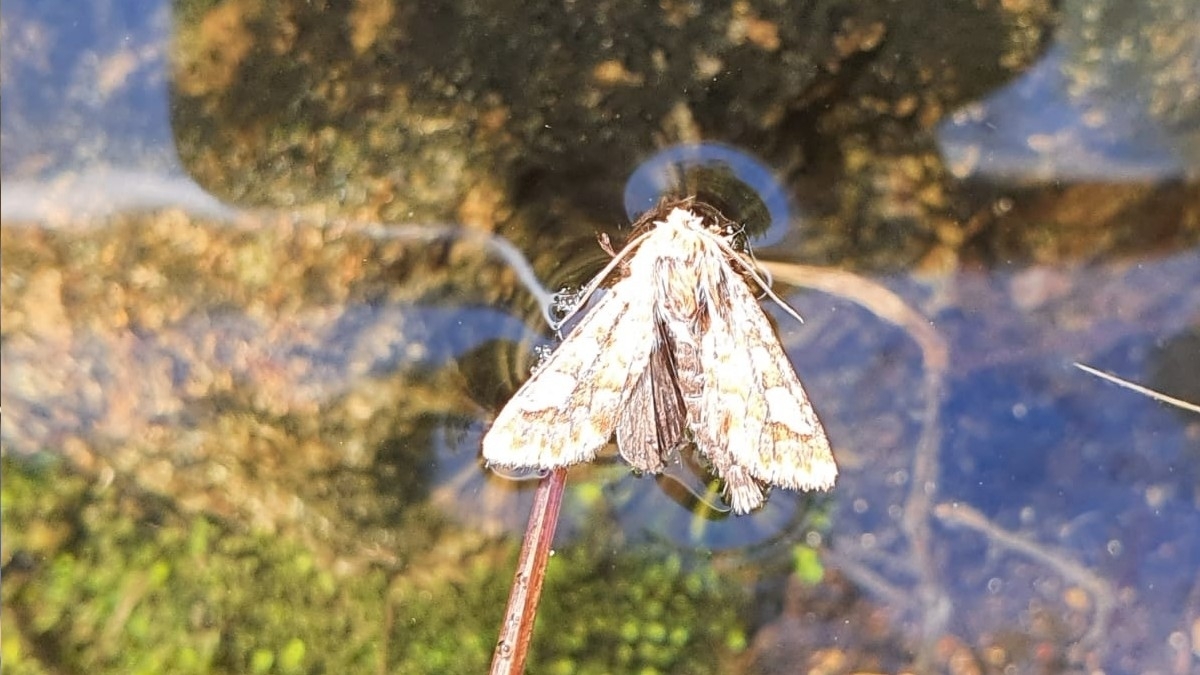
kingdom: Animalia
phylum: Arthropoda
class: Insecta
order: Lepidoptera
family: Noctuidae
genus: Panolis
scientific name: Panolis flammea
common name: Pine beauty
